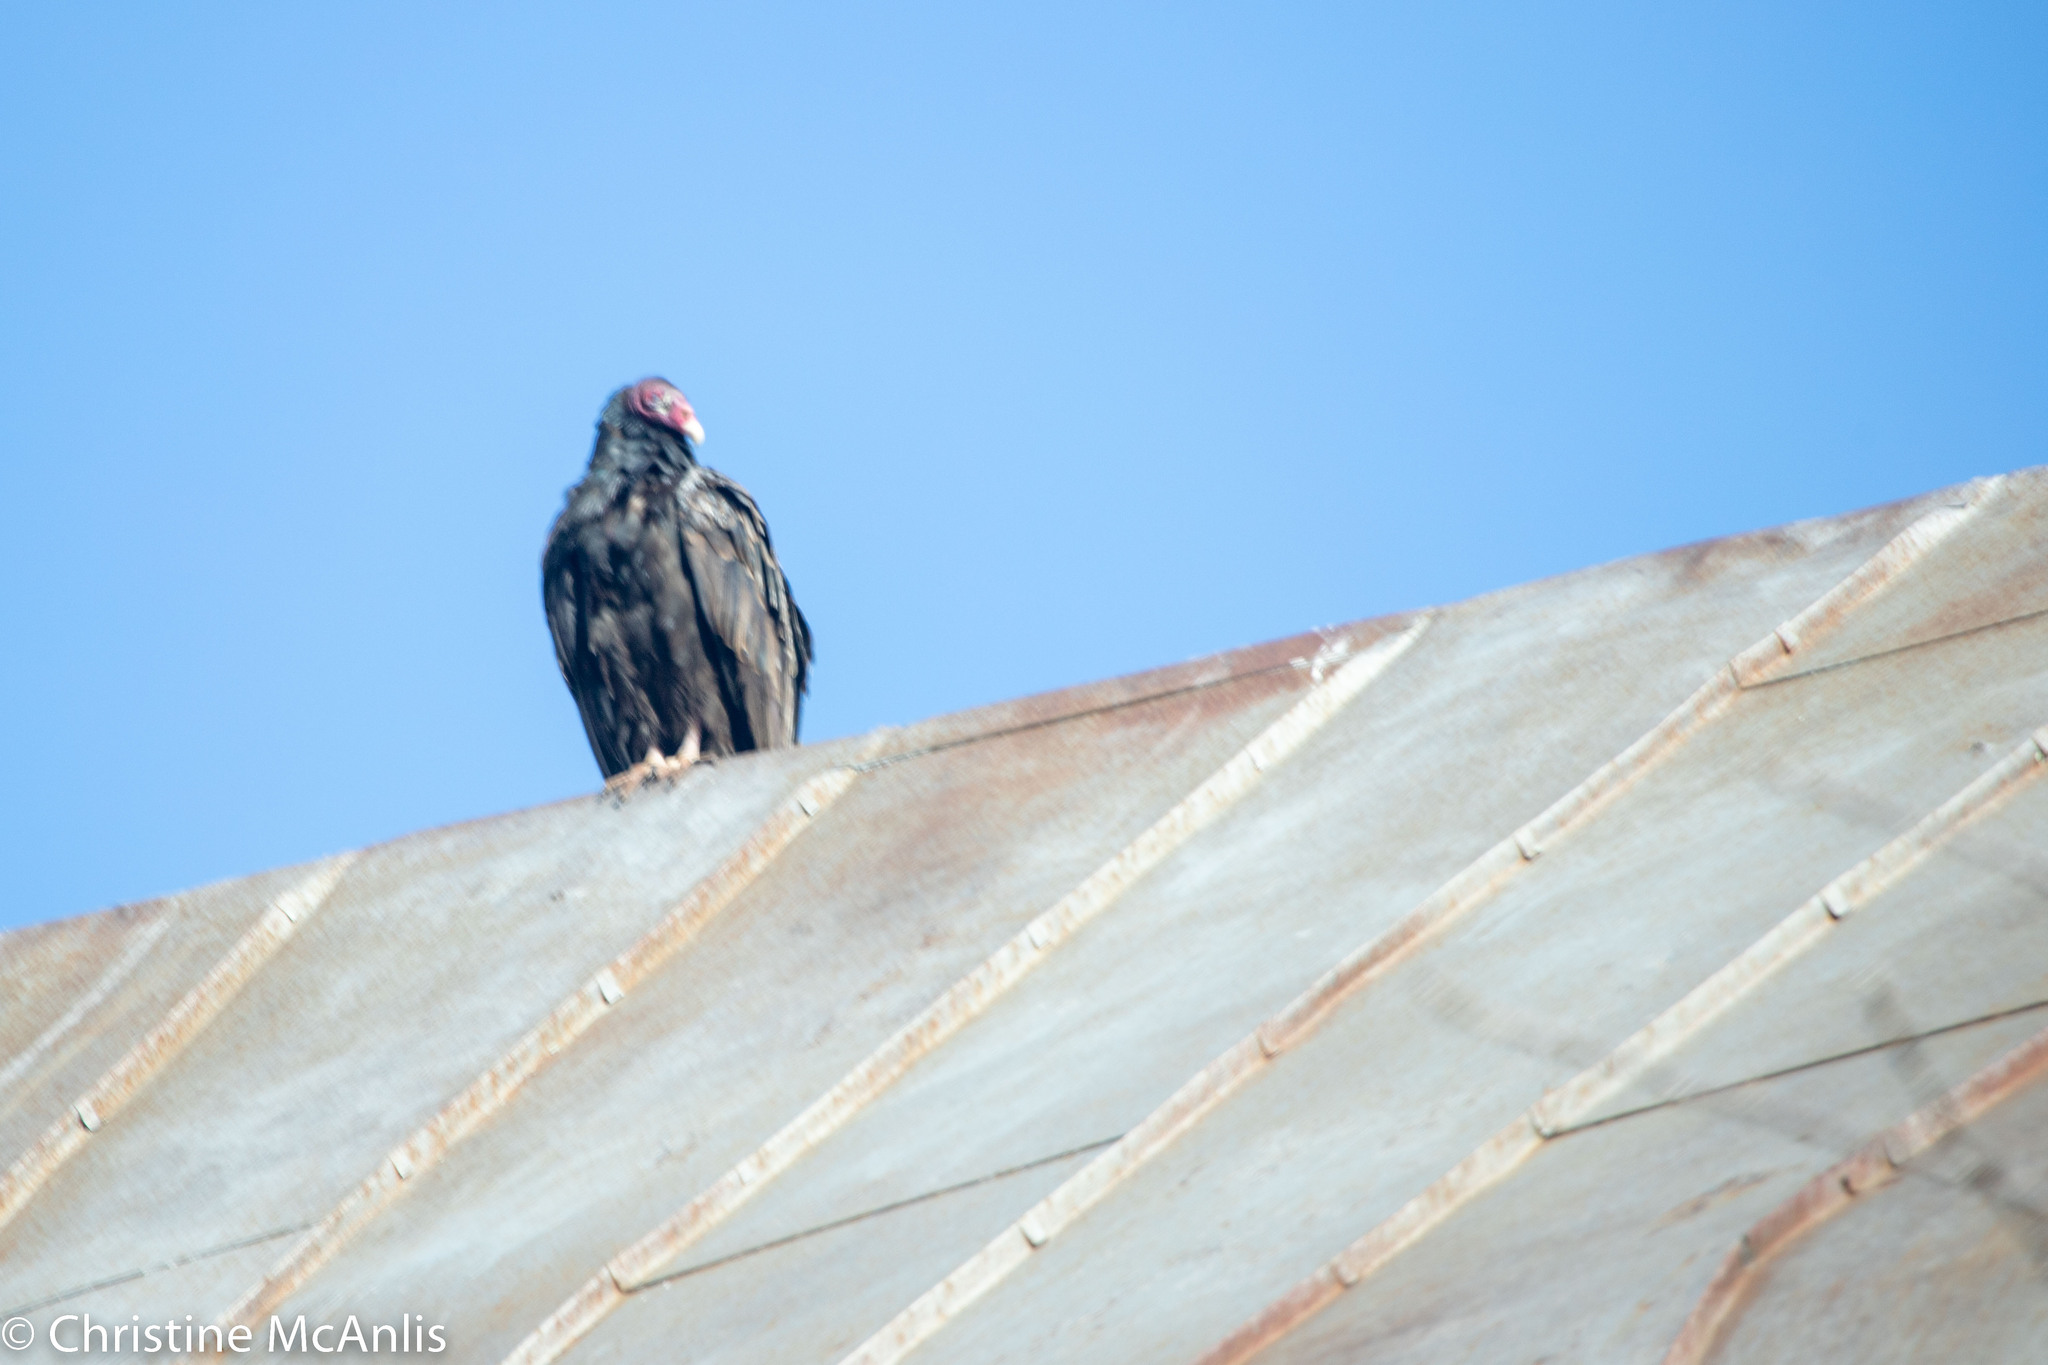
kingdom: Animalia
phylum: Chordata
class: Aves
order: Accipitriformes
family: Cathartidae
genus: Cathartes
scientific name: Cathartes aura
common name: Turkey vulture
